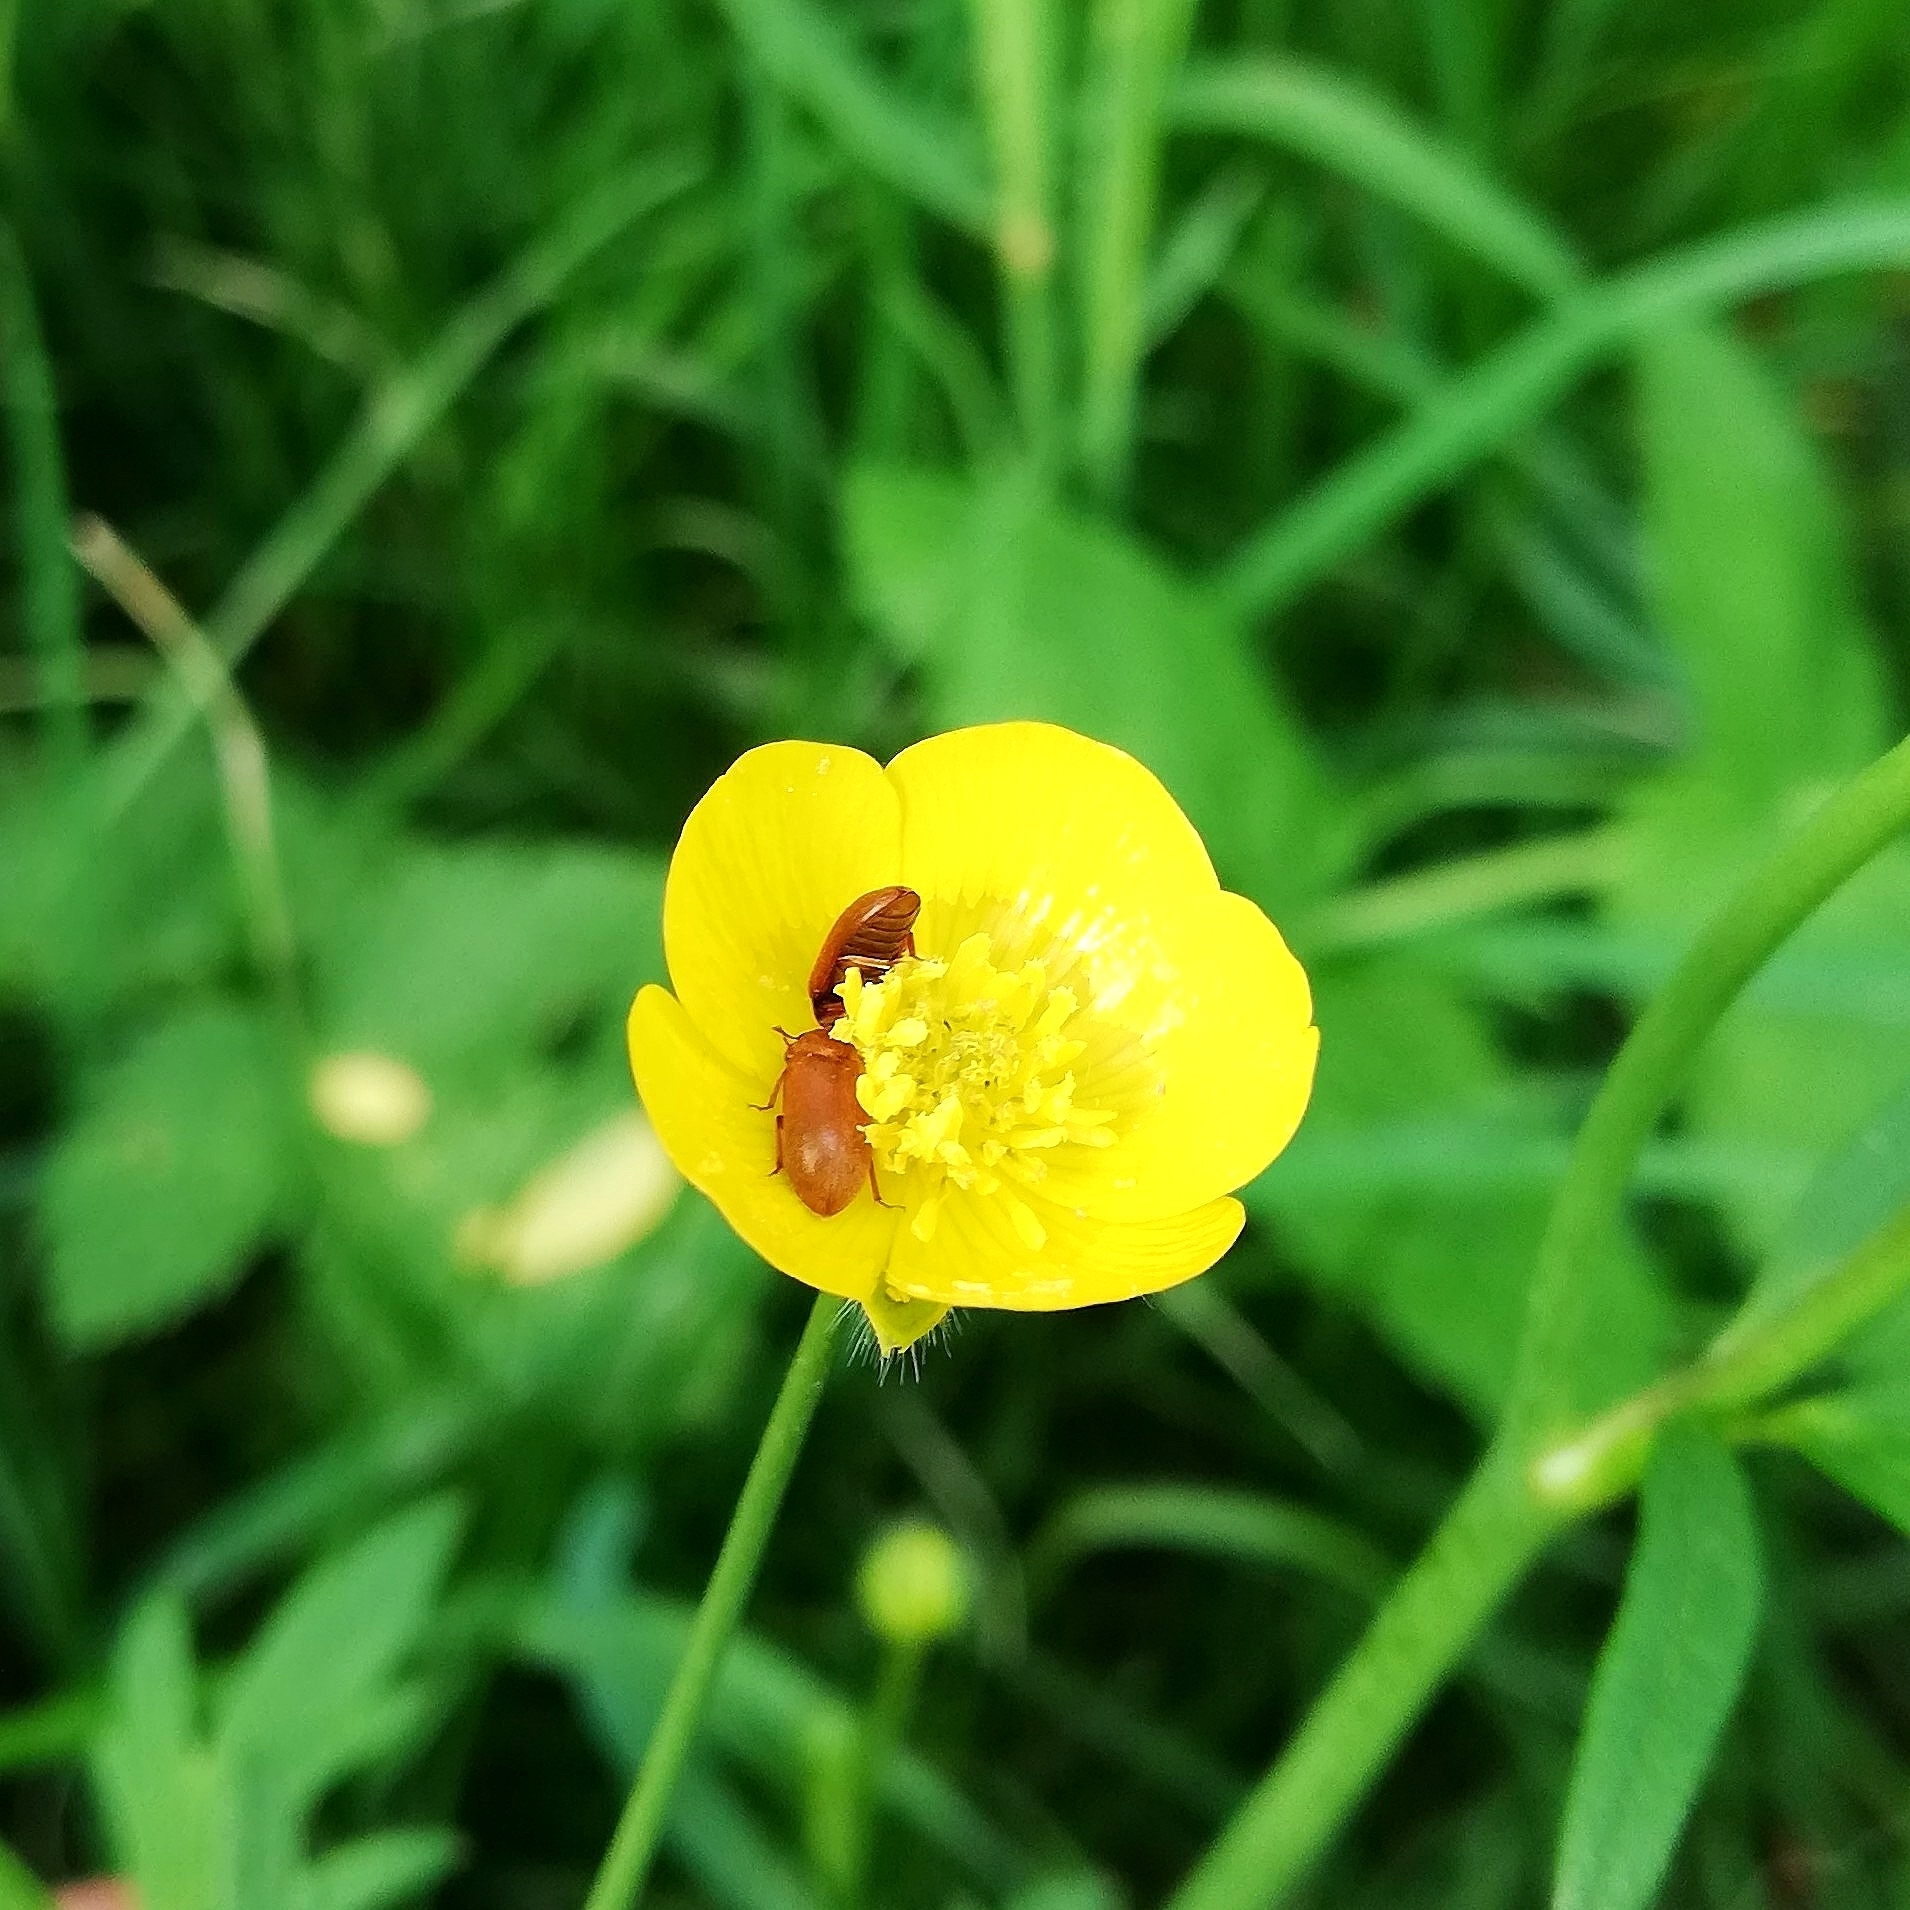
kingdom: Animalia
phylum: Arthropoda
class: Insecta
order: Coleoptera
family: Byturidae
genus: Byturus
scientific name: Byturus ochraceus
